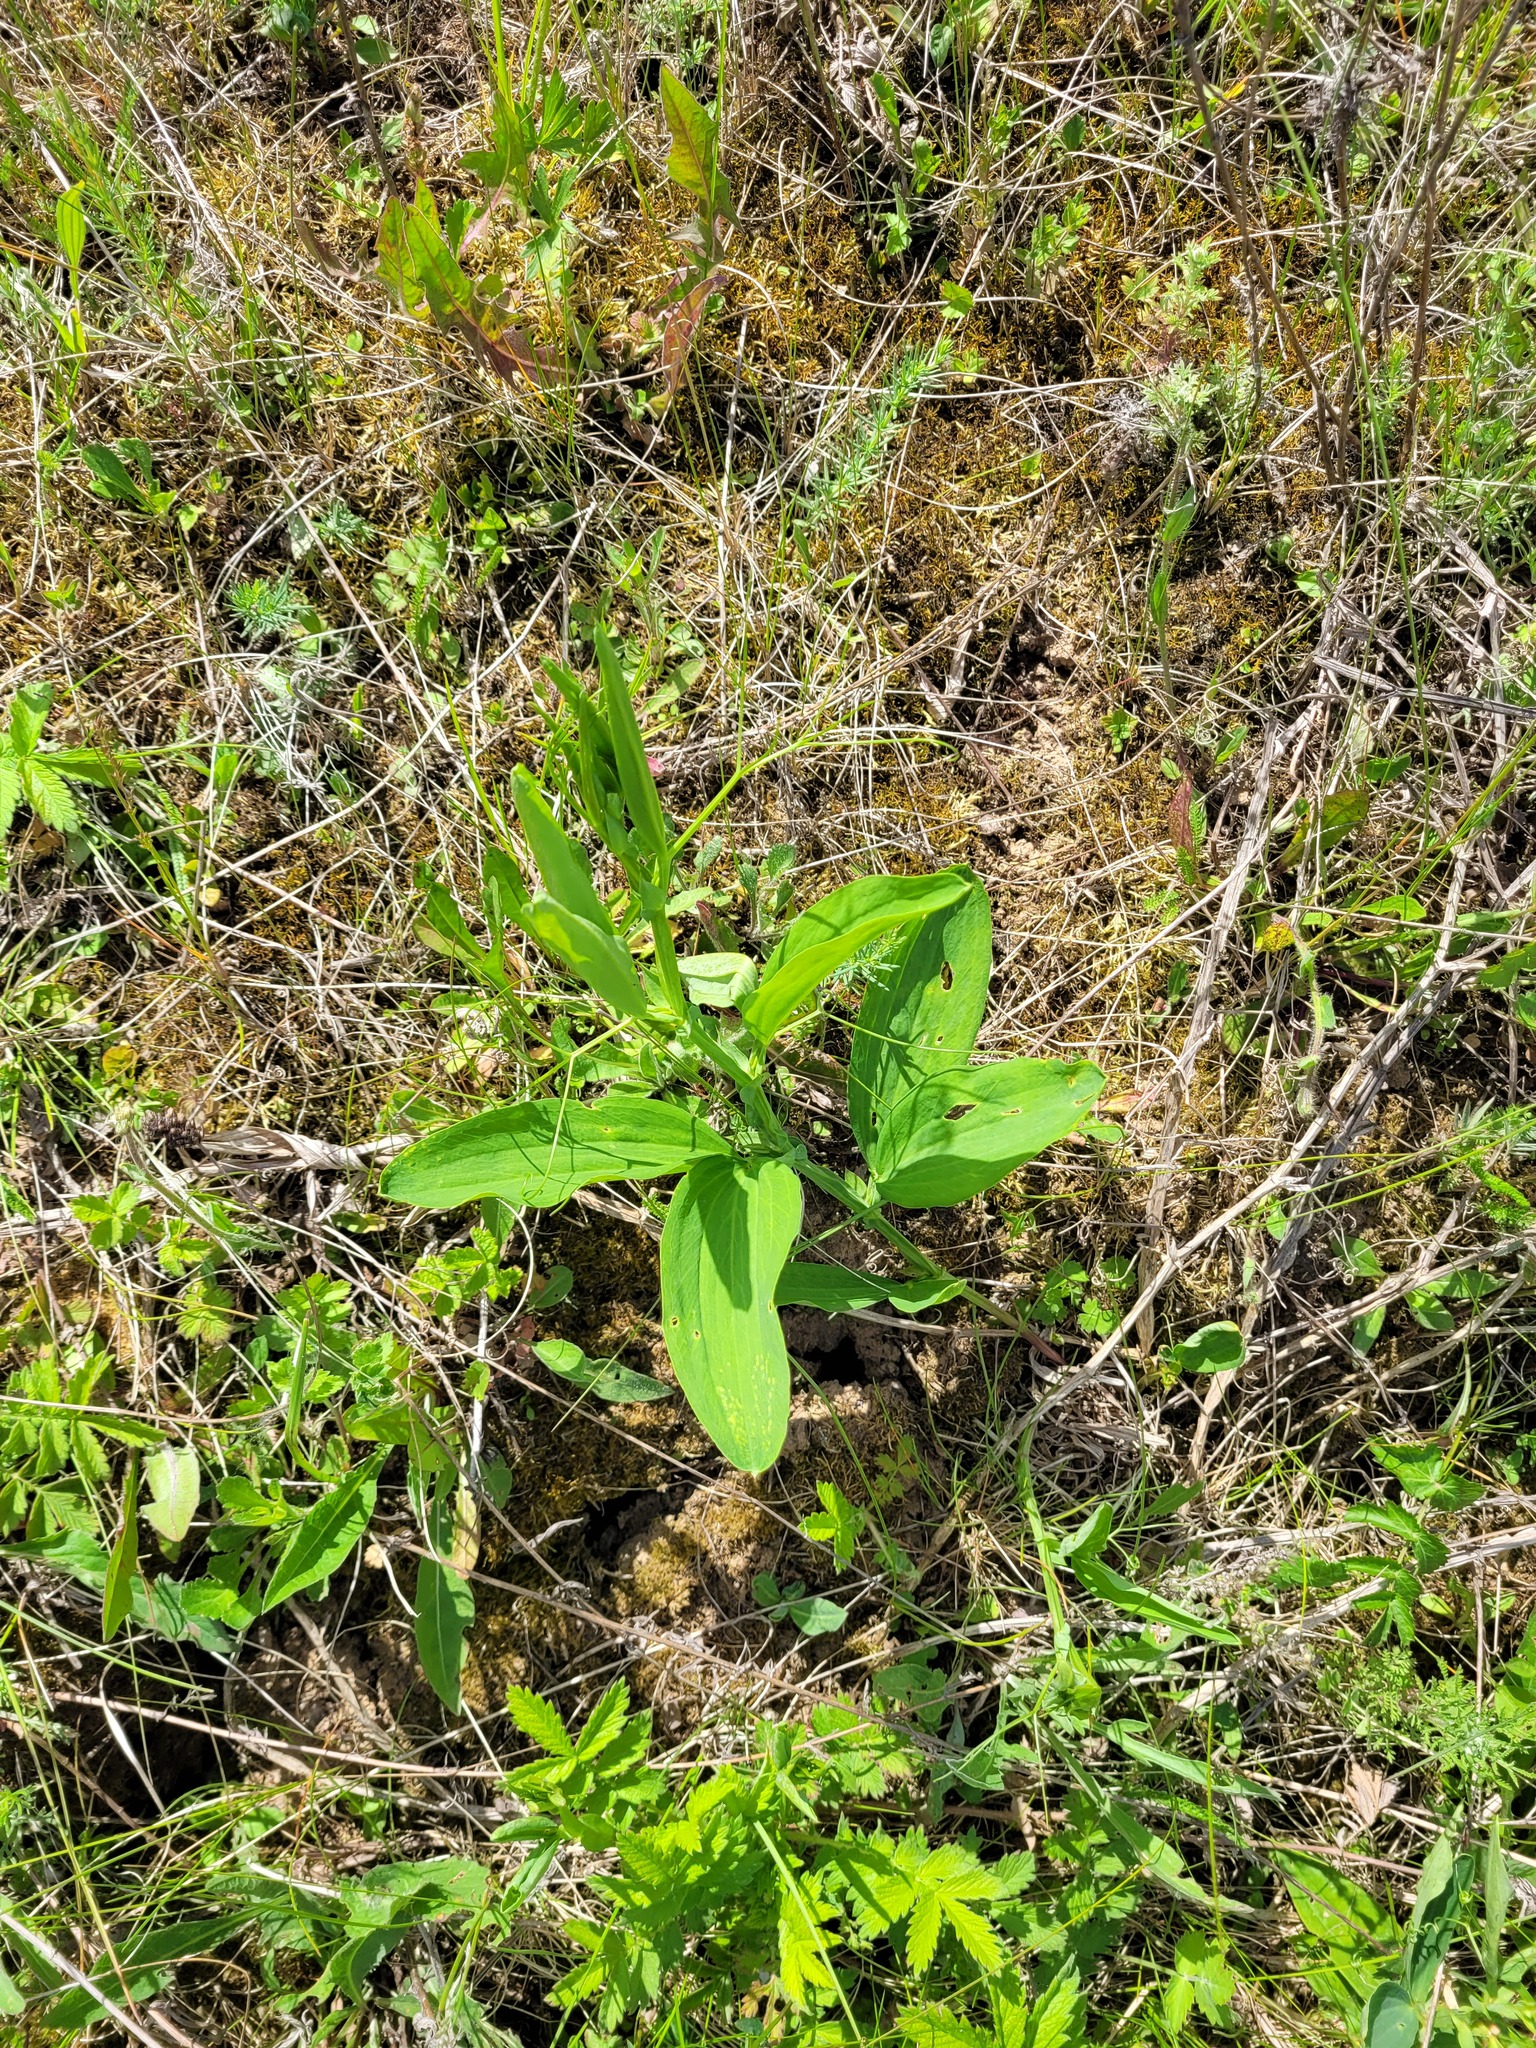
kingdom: Plantae
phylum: Tracheophyta
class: Magnoliopsida
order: Fabales
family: Fabaceae
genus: Lathyrus
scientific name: Lathyrus sylvestris
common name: Flat pea
